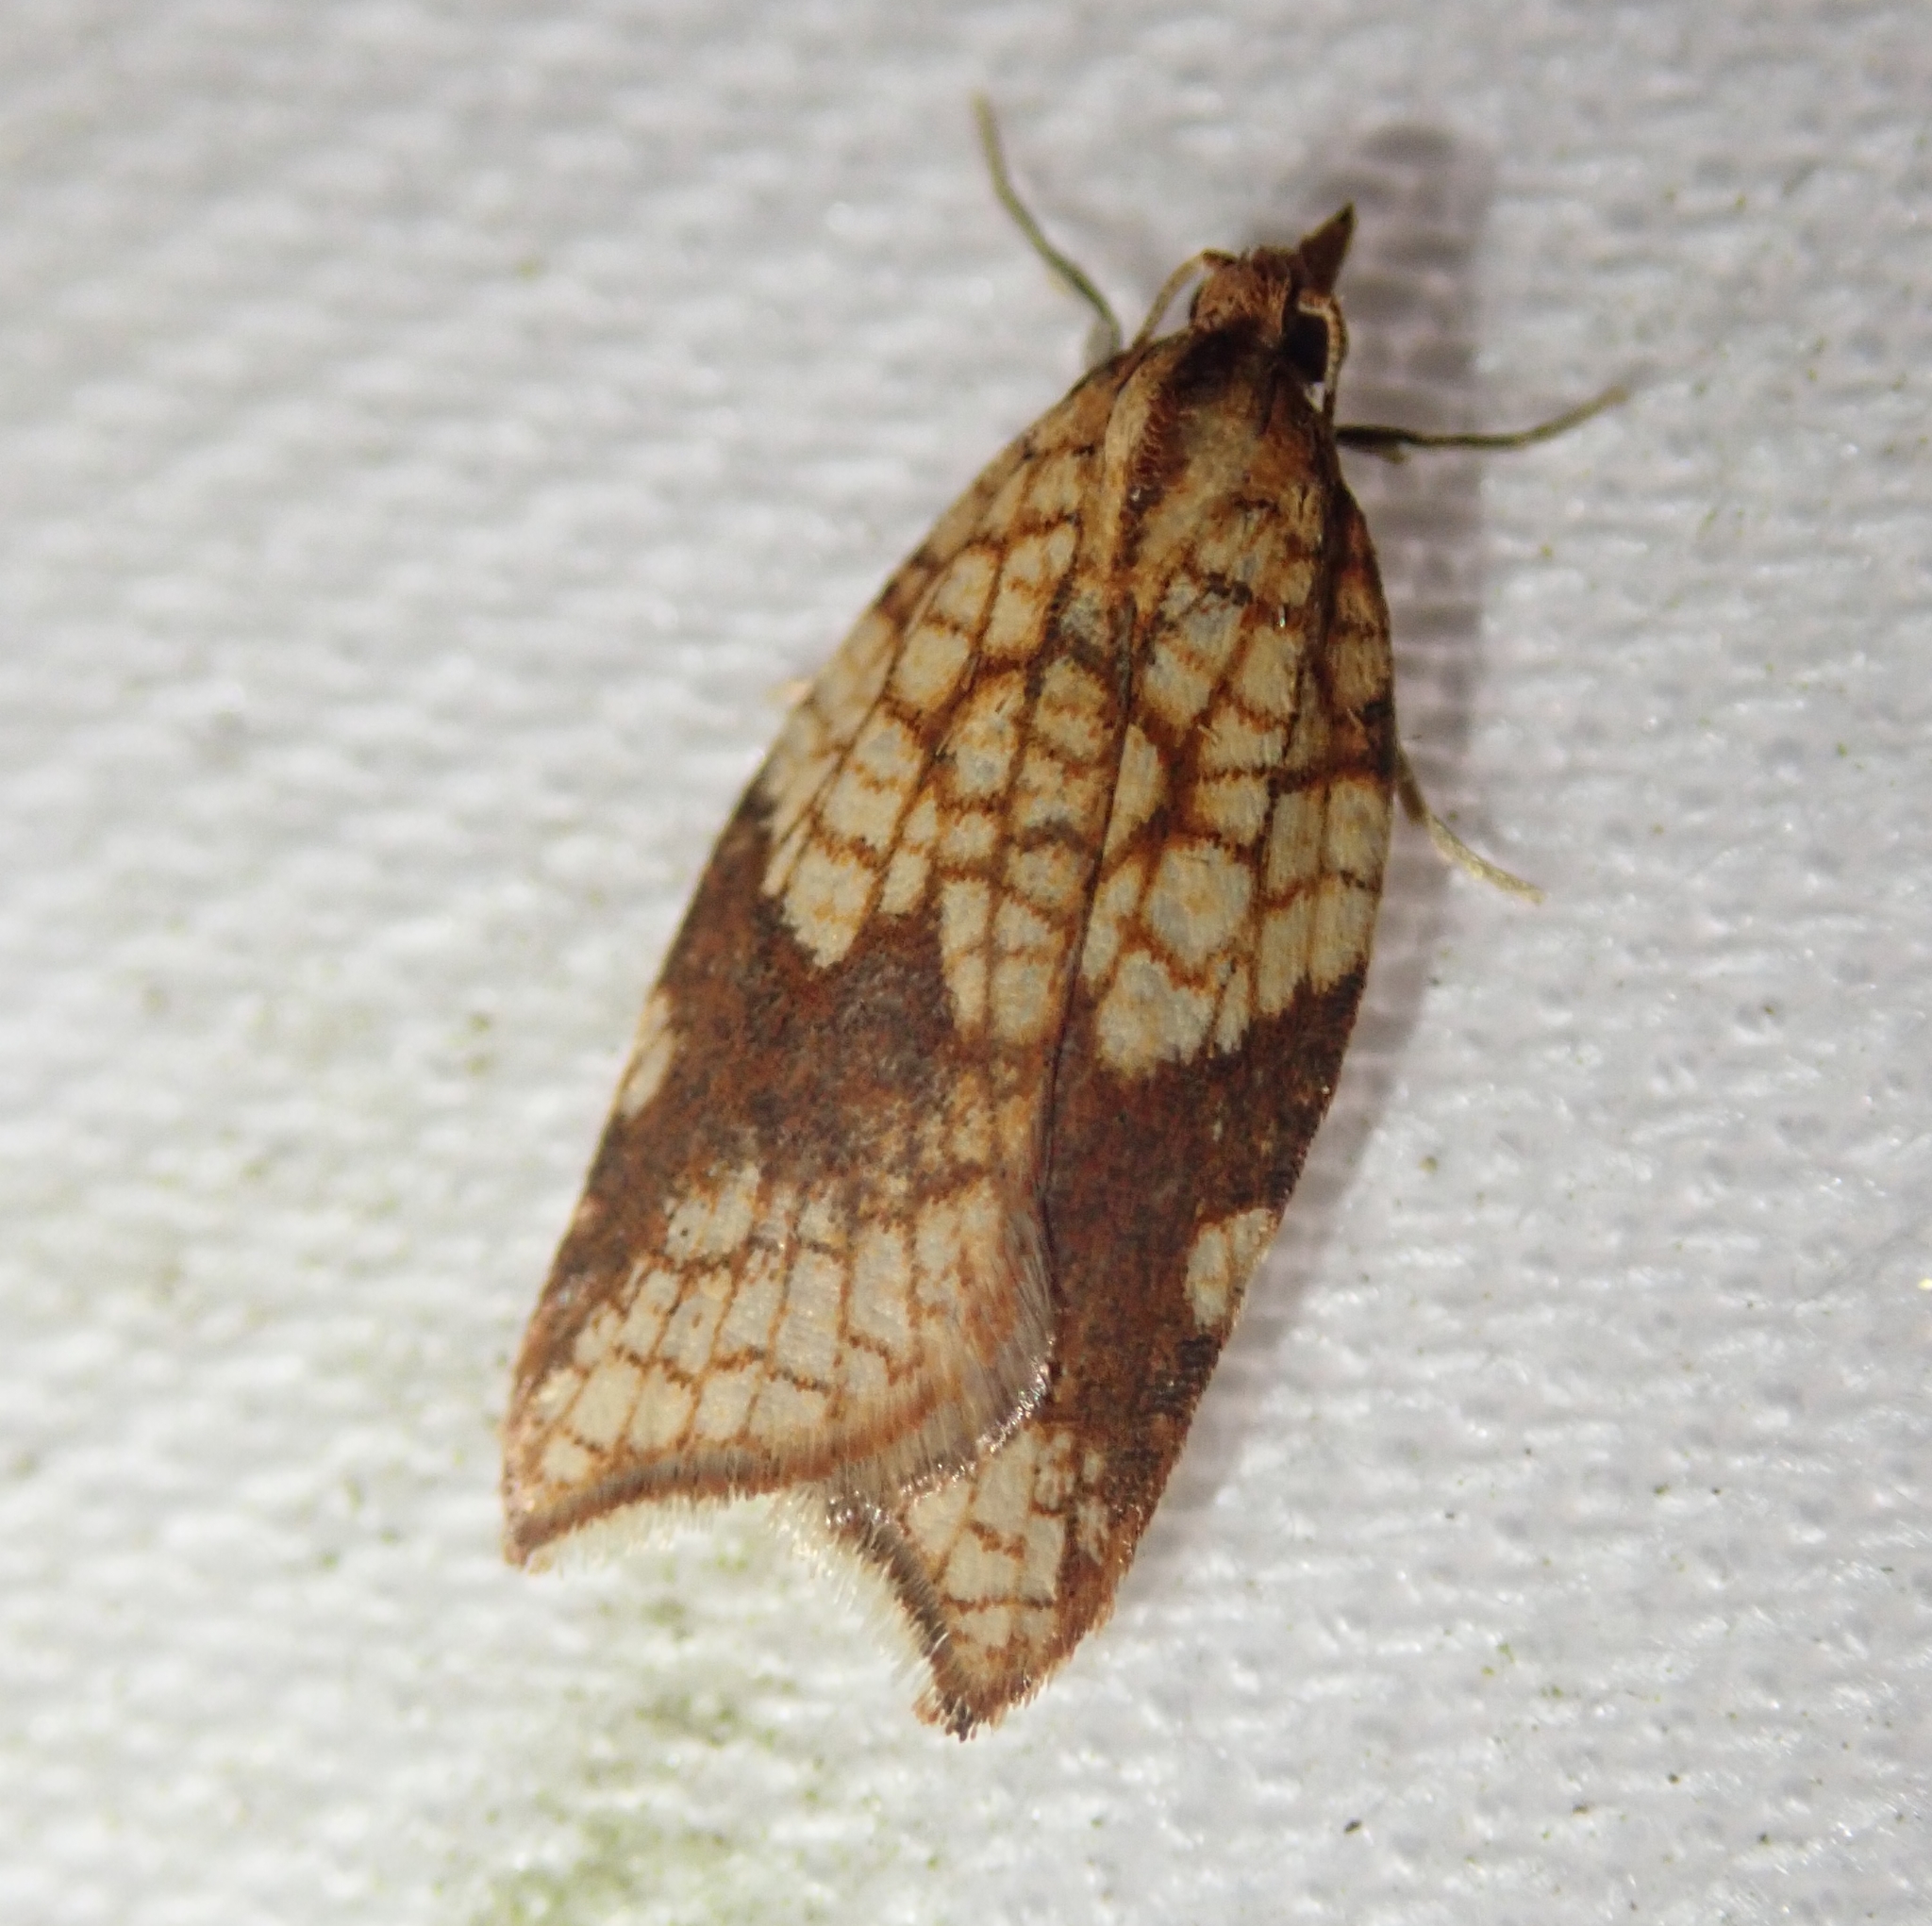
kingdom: Animalia
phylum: Arthropoda
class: Insecta
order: Lepidoptera
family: Tortricidae
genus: Acleris
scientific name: Acleris rhombana
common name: Tortricid moth
